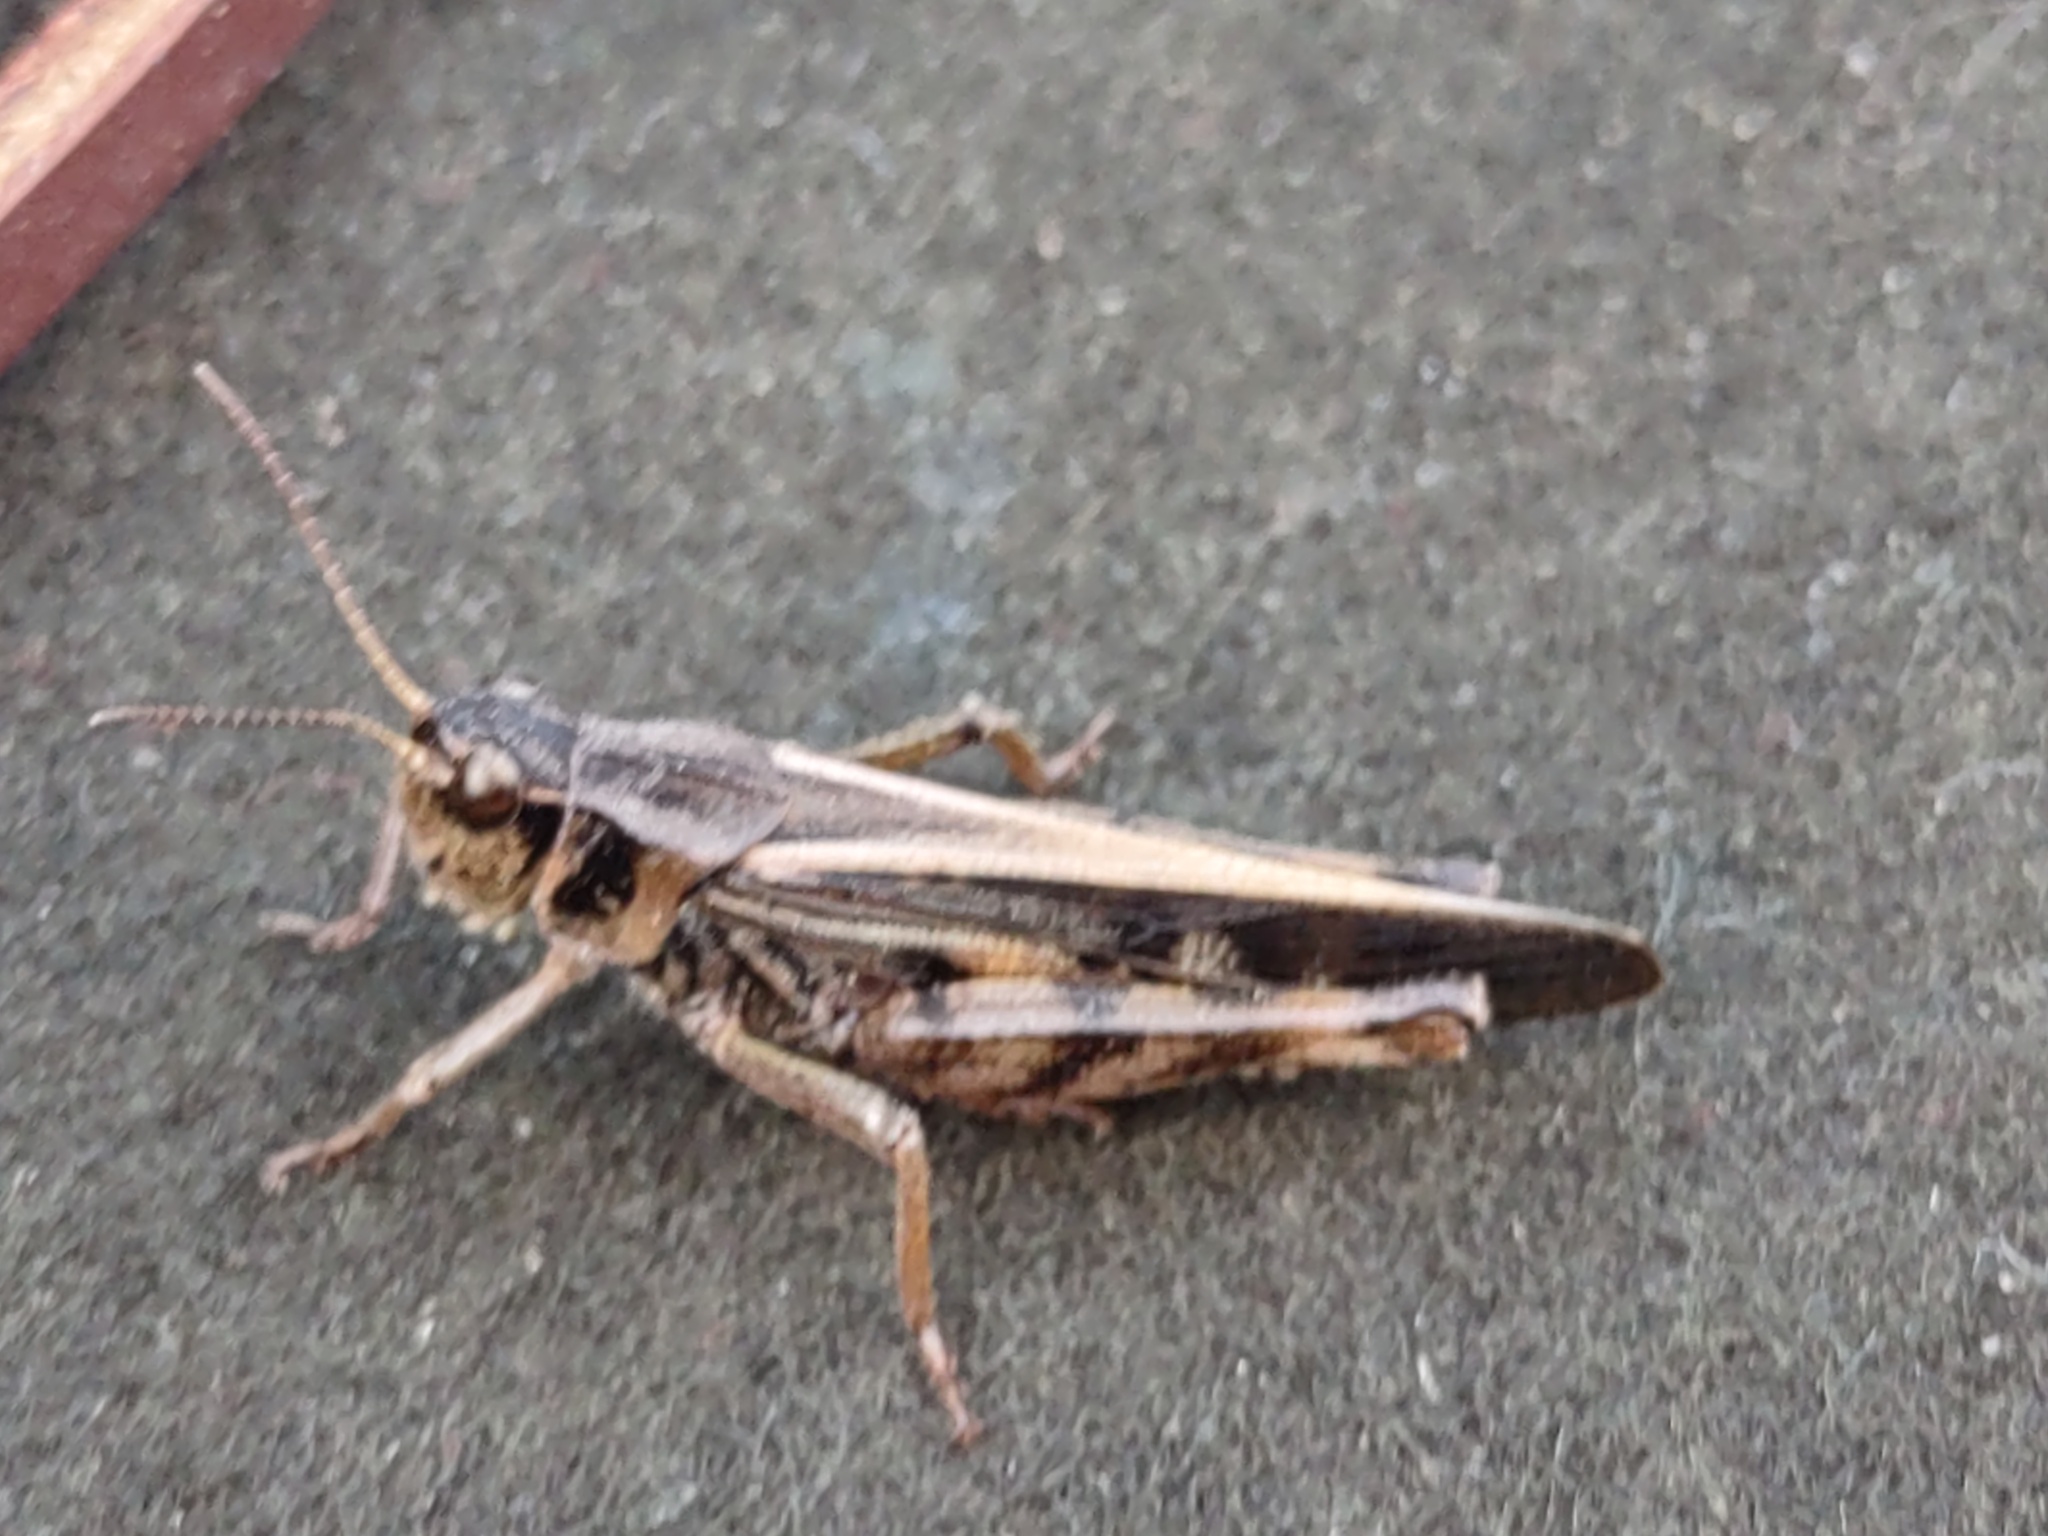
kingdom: Animalia
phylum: Arthropoda
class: Insecta
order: Orthoptera
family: Acrididae
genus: Camnula
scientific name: Camnula pellucida
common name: Clear-winged grasshopper
